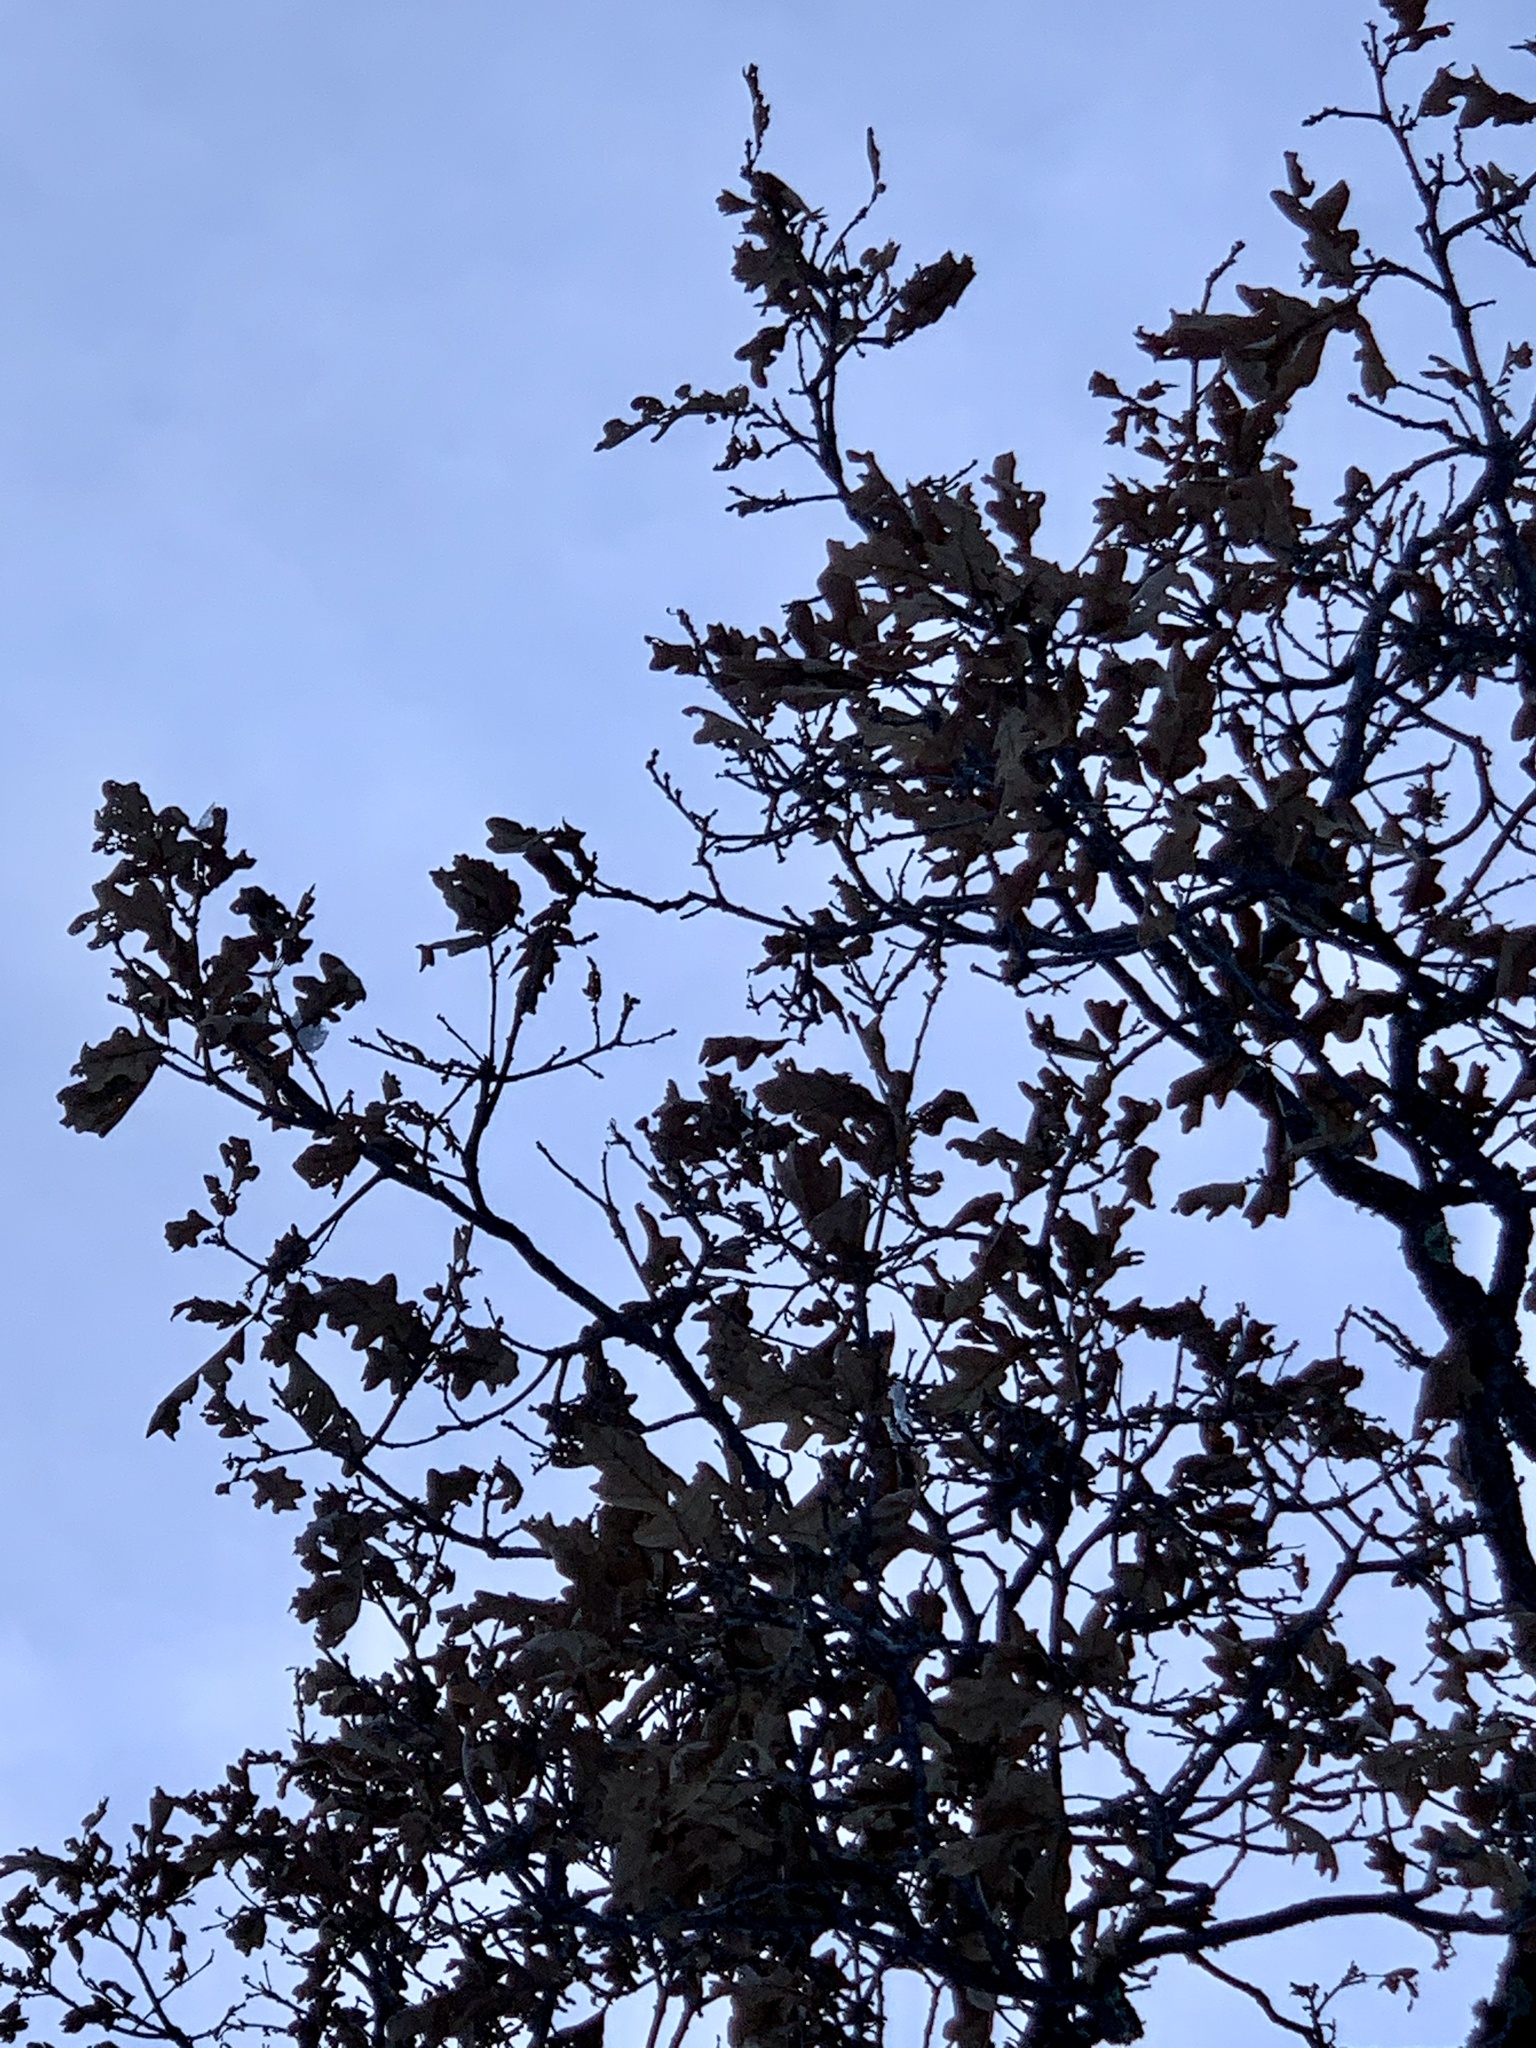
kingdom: Plantae
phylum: Tracheophyta
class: Magnoliopsida
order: Fagales
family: Fagaceae
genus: Quercus
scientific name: Quercus gambelii
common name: Gambel oak
